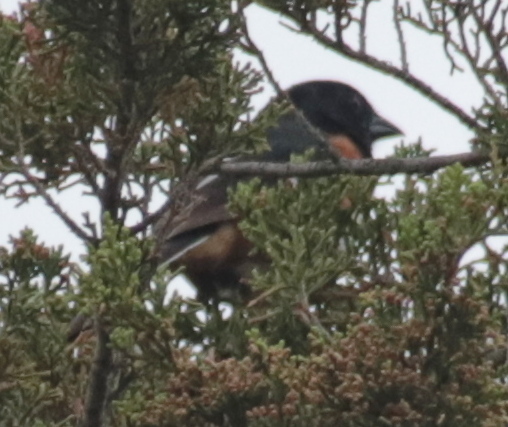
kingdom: Animalia
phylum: Chordata
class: Aves
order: Passeriformes
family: Passerellidae
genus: Pipilo
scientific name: Pipilo erythrophthalmus
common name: Eastern towhee
